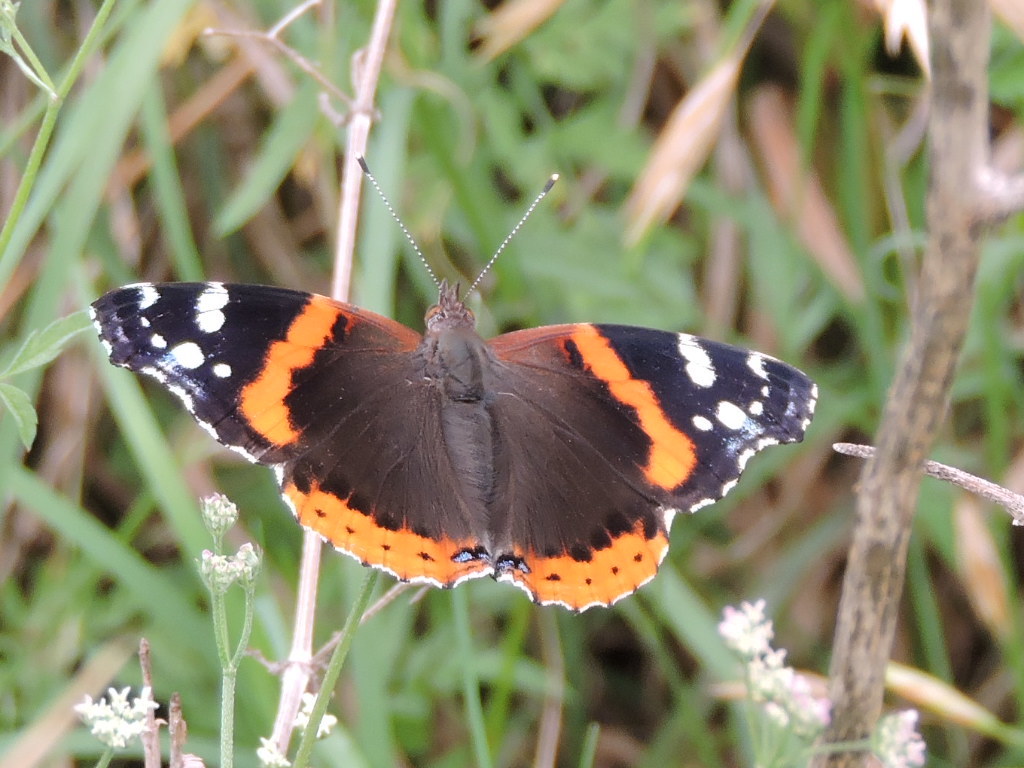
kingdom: Animalia
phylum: Arthropoda
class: Insecta
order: Lepidoptera
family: Nymphalidae
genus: Vanessa
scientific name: Vanessa atalanta
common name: Red admiral
